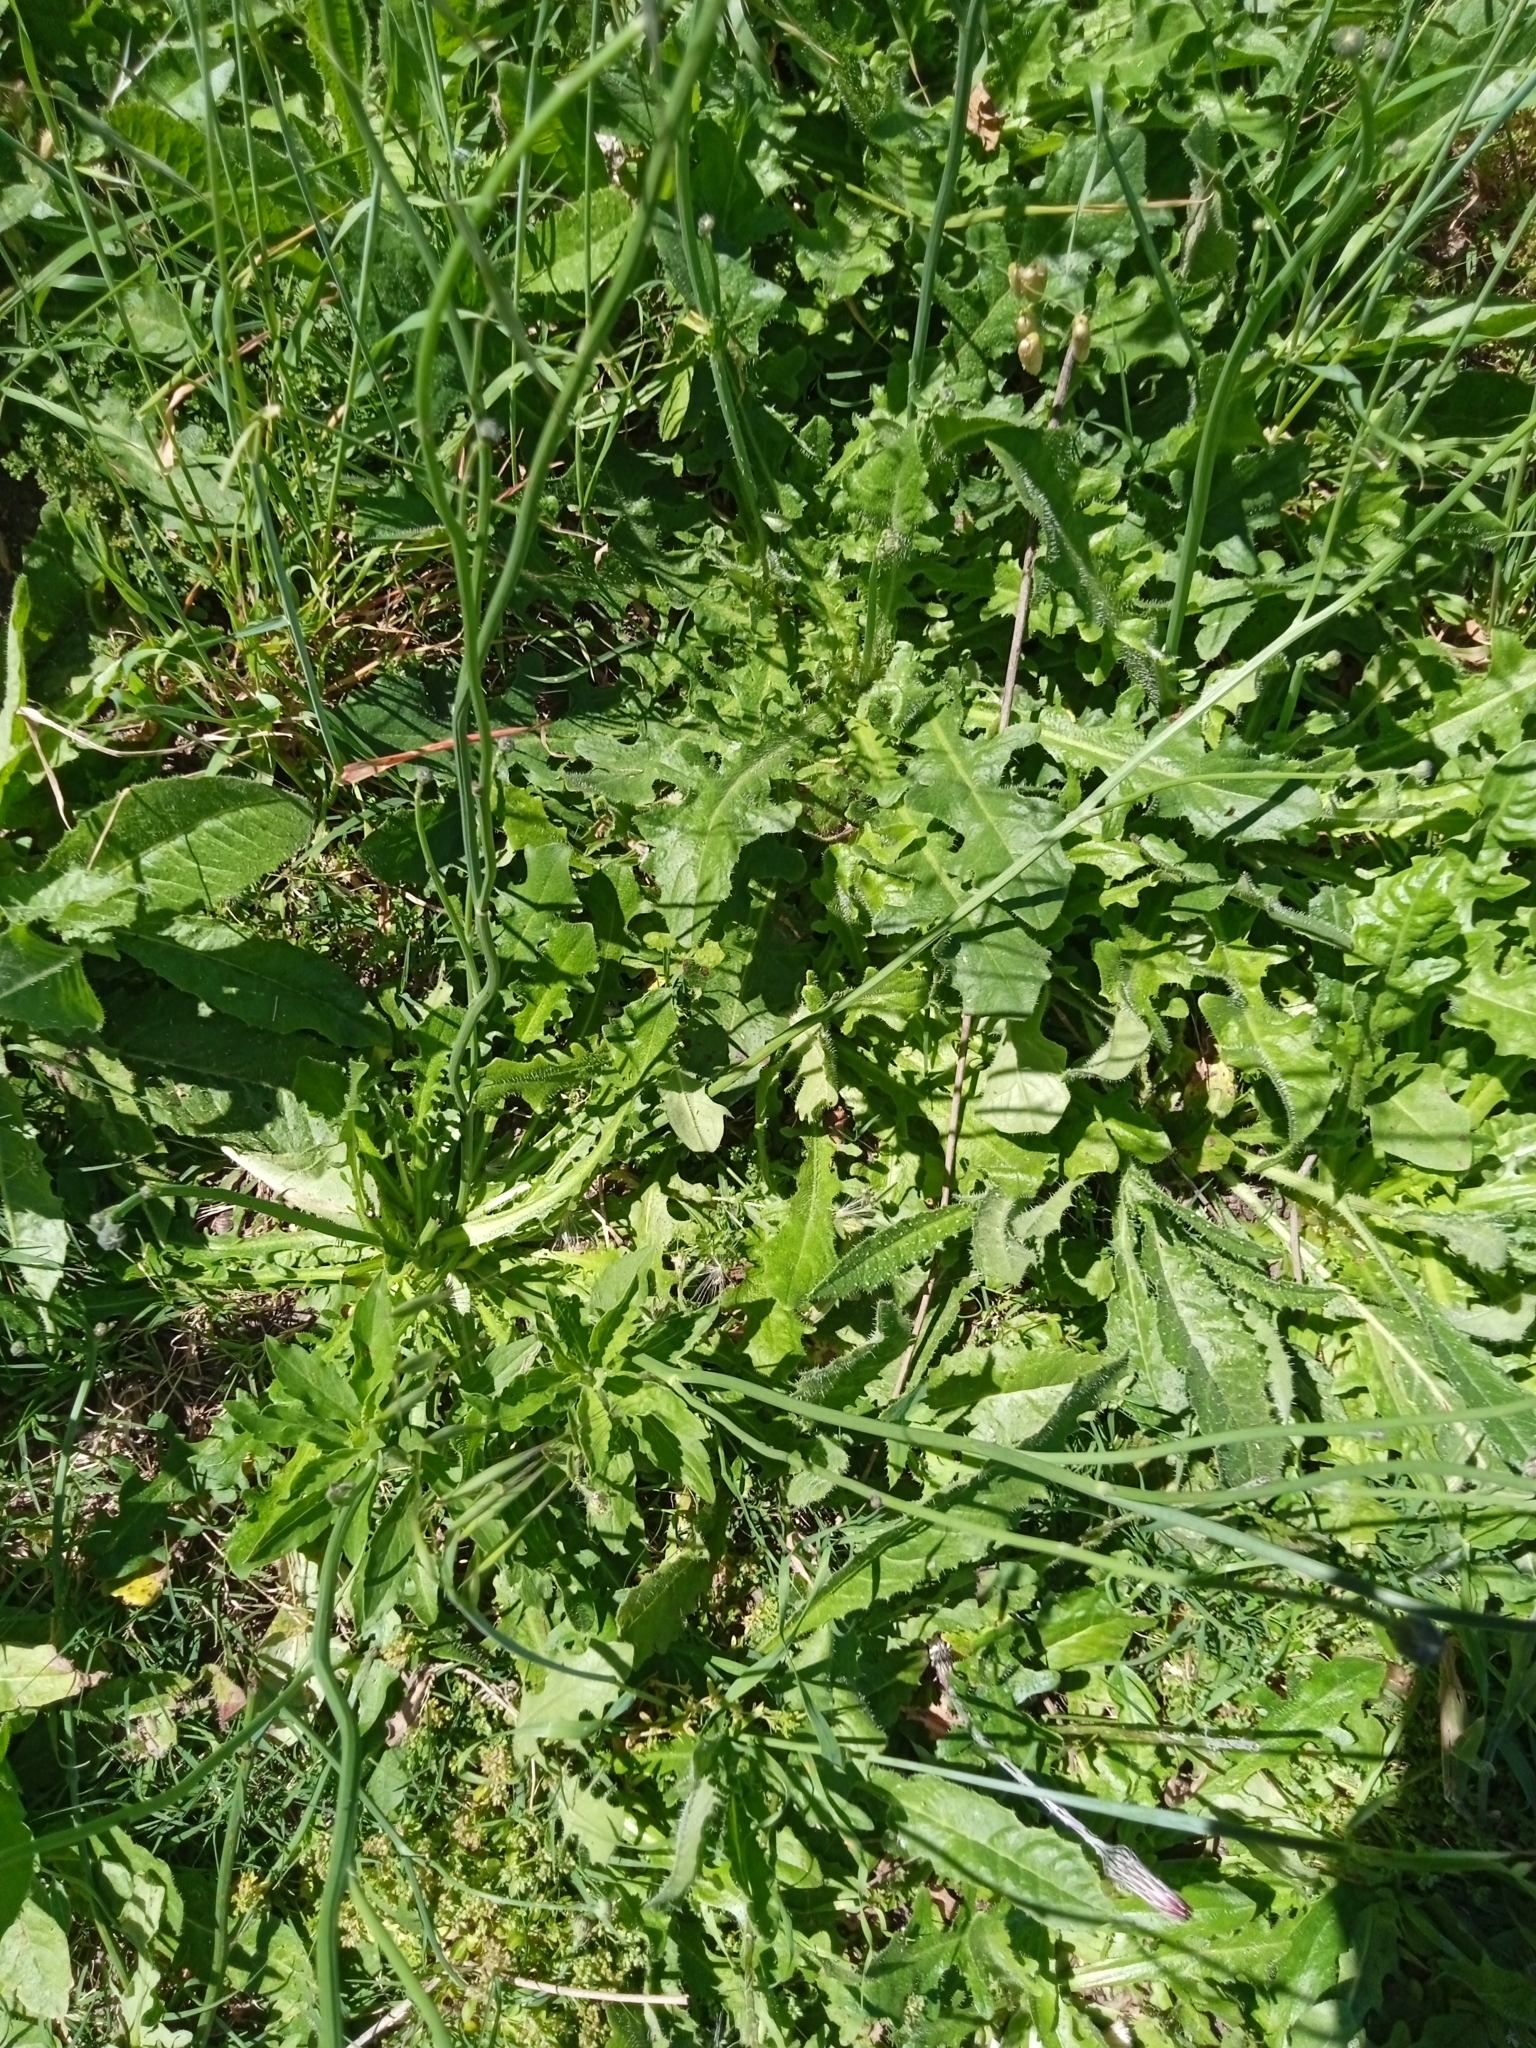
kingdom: Plantae
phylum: Tracheophyta
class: Magnoliopsida
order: Asterales
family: Asteraceae
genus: Hypochaeris
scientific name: Hypochaeris radicata
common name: Flatweed
